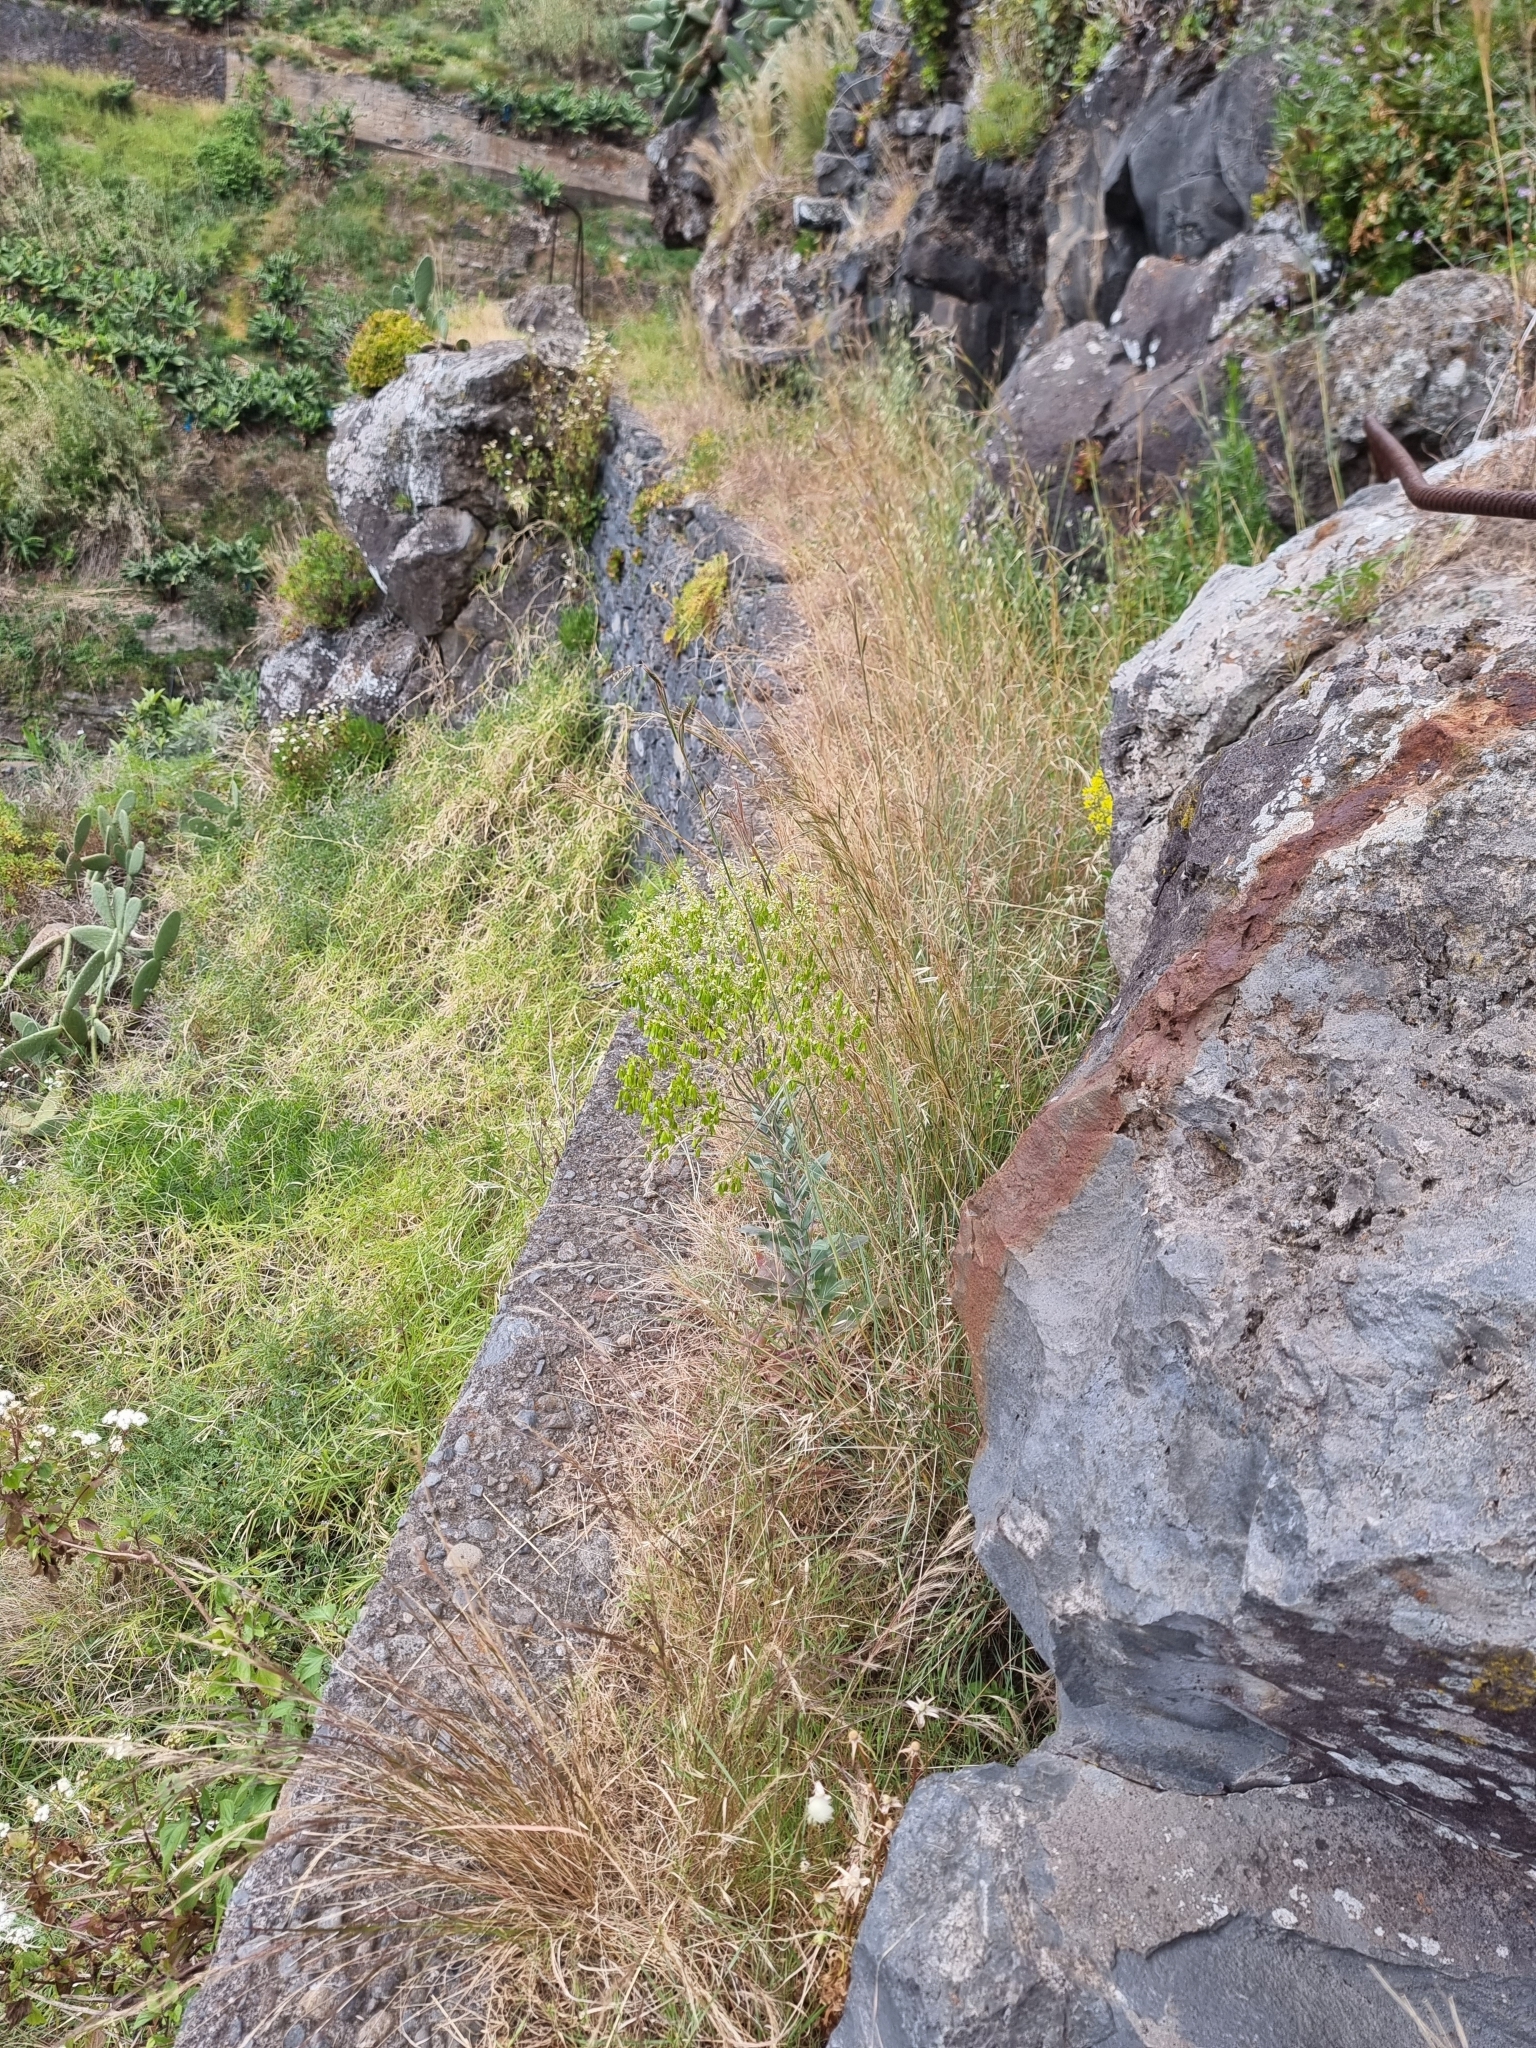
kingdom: Plantae
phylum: Tracheophyta
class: Magnoliopsida
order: Brassicales
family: Brassicaceae
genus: Isatis
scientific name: Isatis tinctoria
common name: Woad
